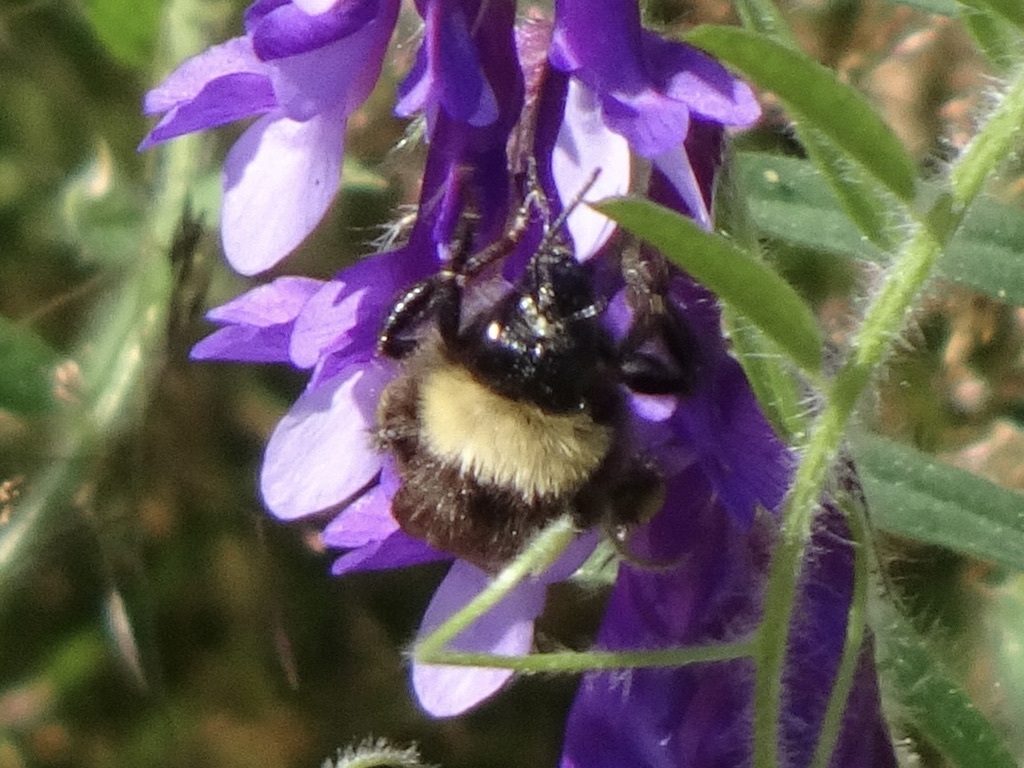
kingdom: Animalia
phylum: Arthropoda
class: Insecta
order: Hymenoptera
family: Apidae
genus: Bombus
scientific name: Bombus californicus
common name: California bumble bee
